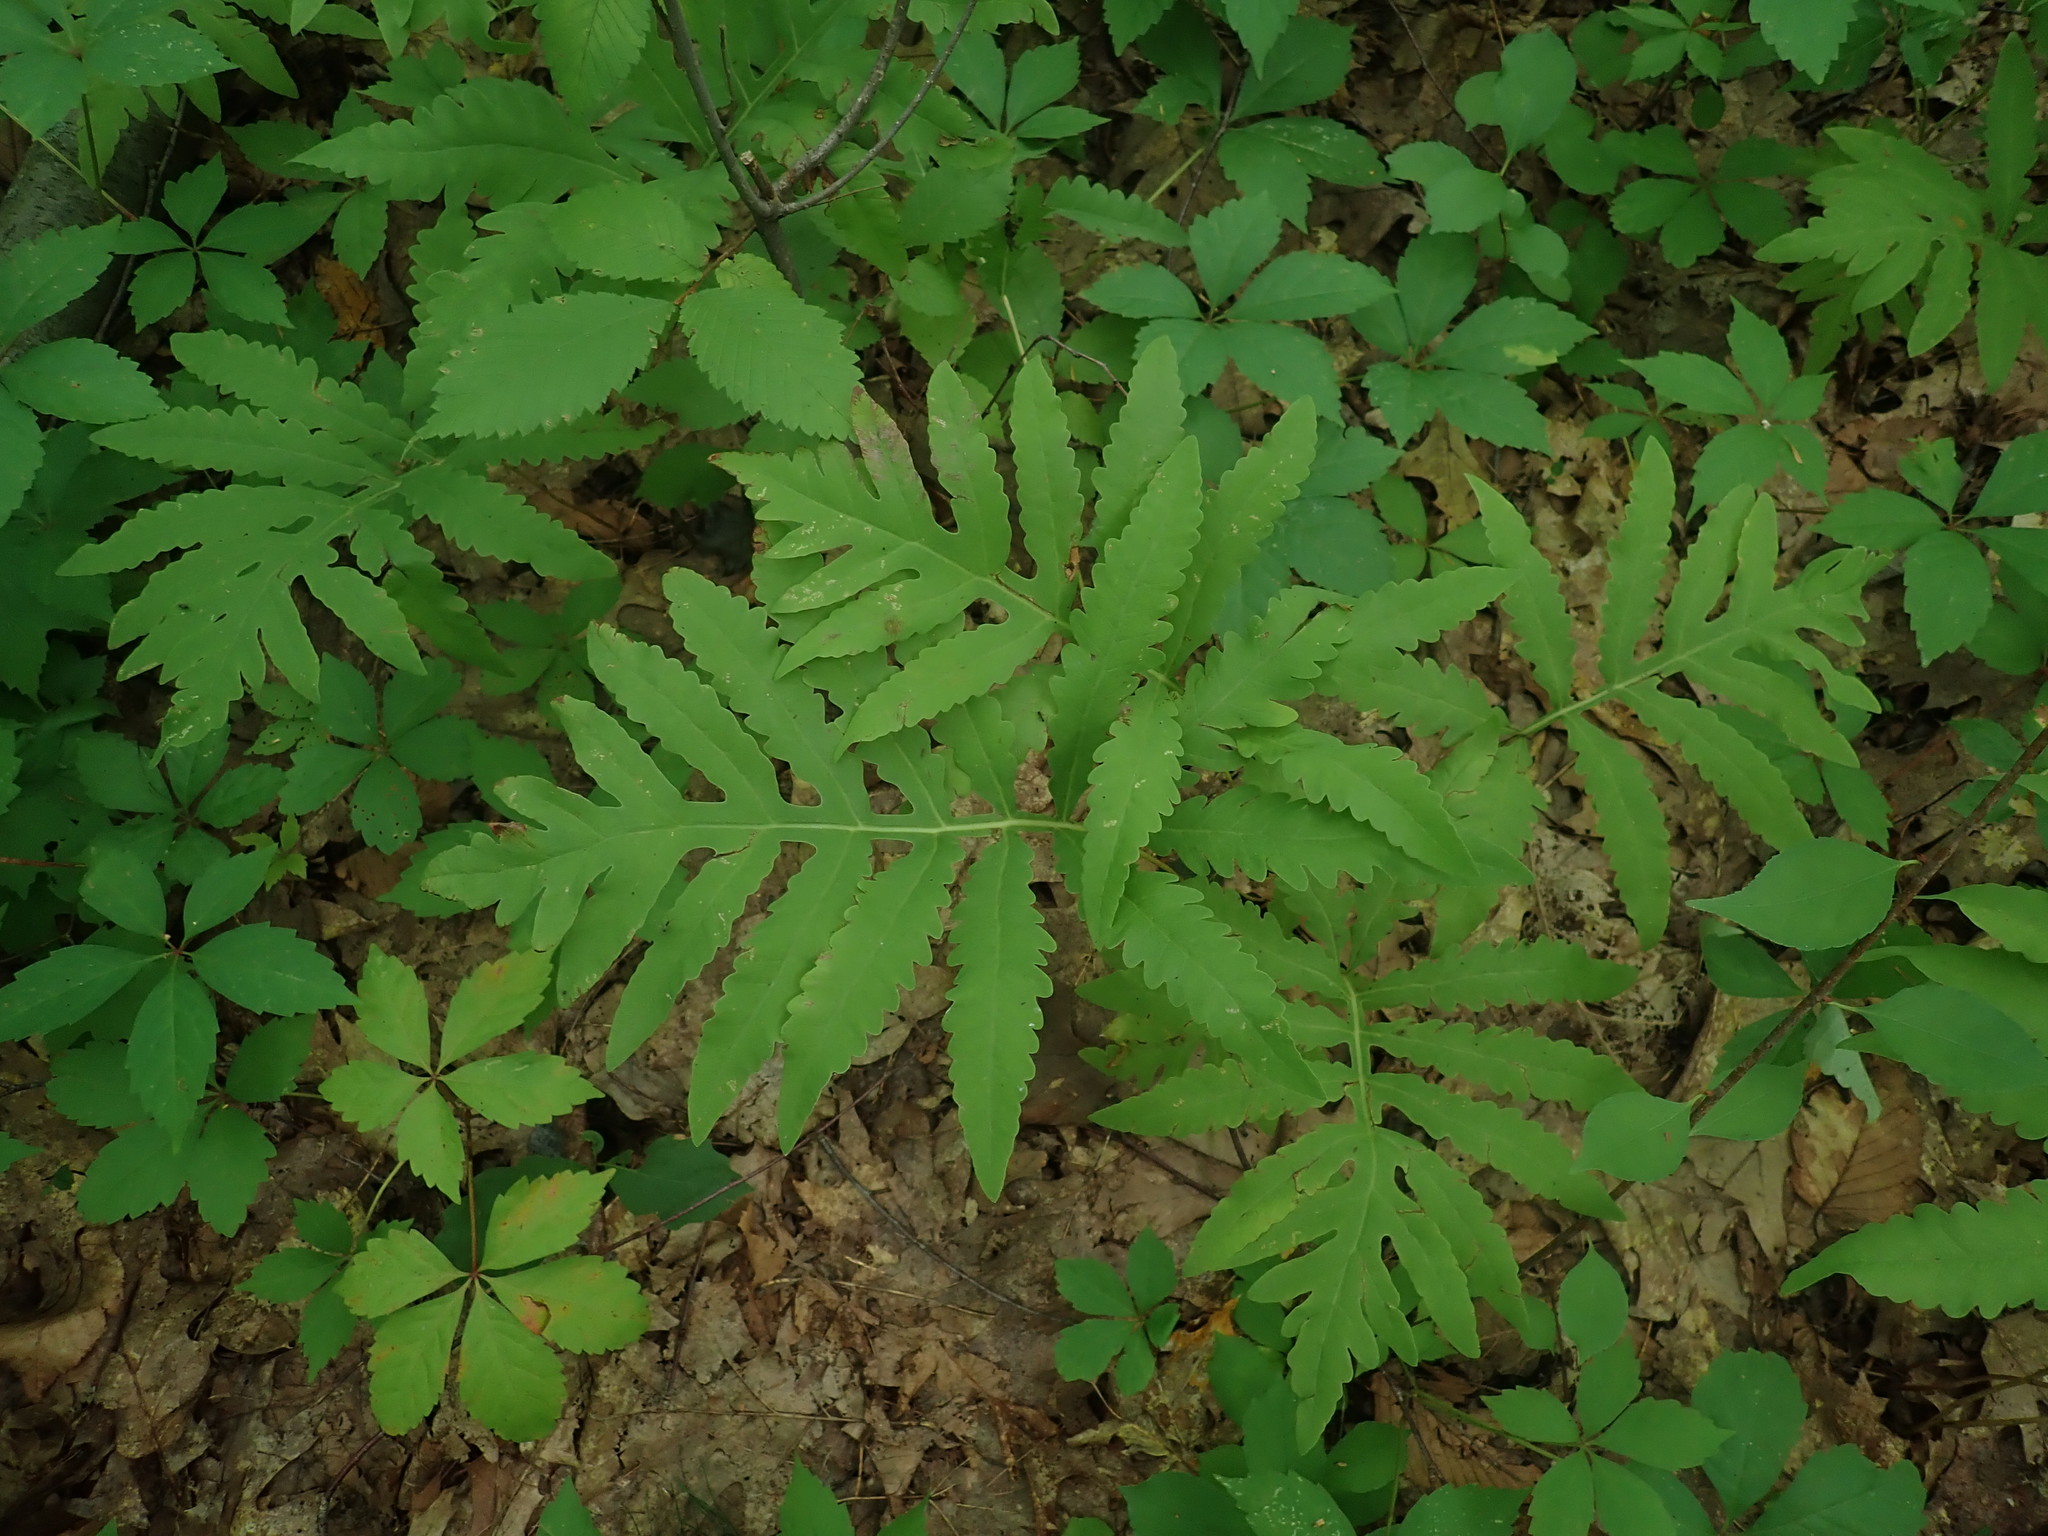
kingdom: Plantae
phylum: Tracheophyta
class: Polypodiopsida
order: Polypodiales
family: Onocleaceae
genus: Onoclea
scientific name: Onoclea sensibilis
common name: Sensitive fern
